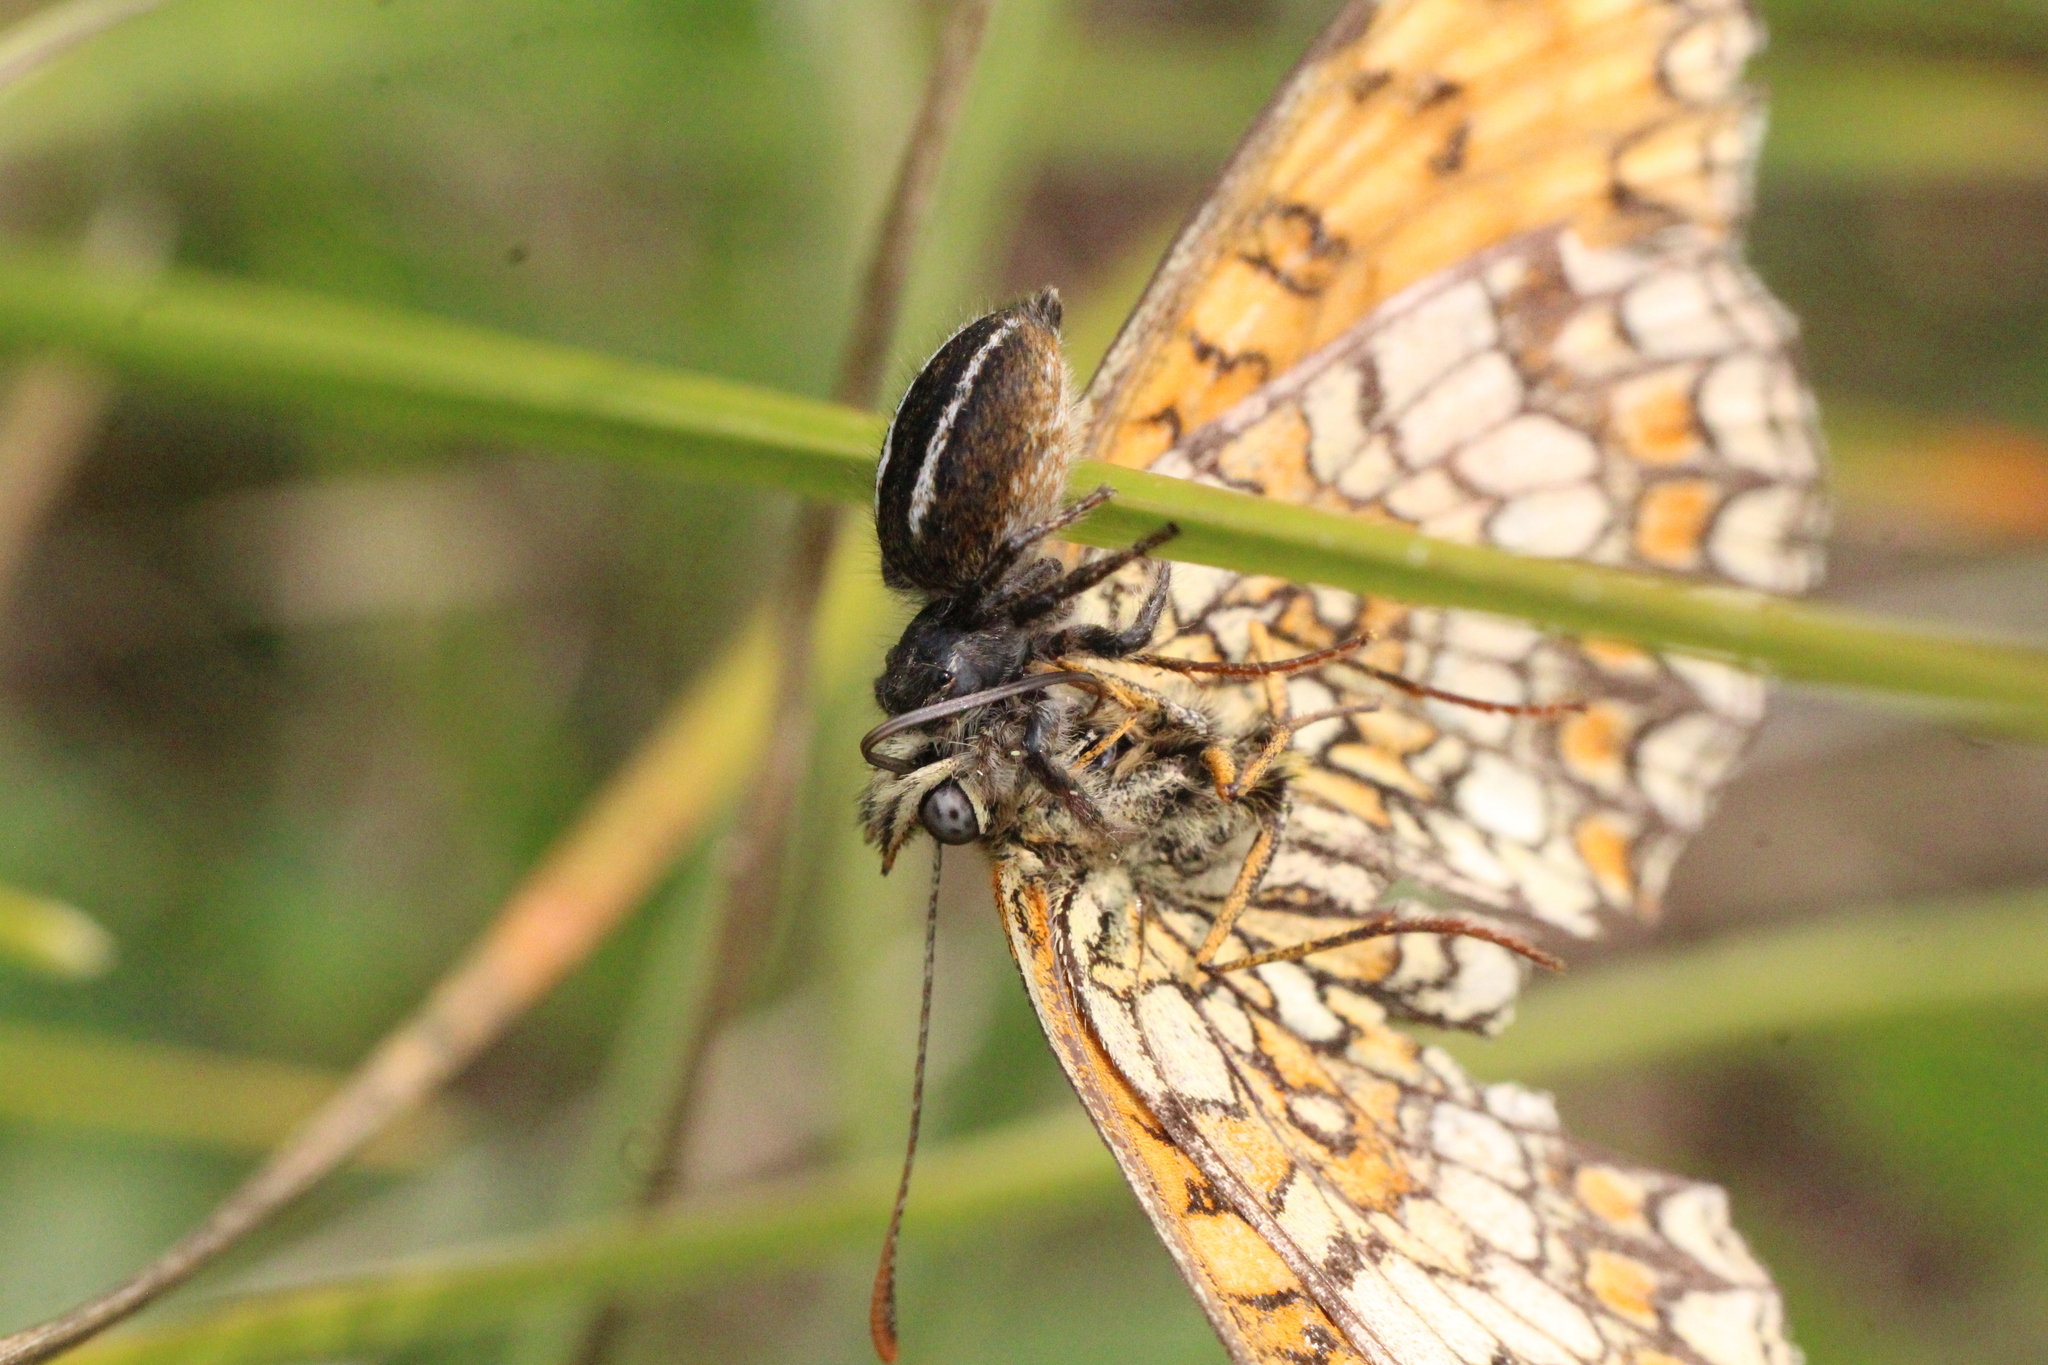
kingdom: Animalia
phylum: Arthropoda
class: Arachnida
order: Araneae
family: Salticidae
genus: Philaeus
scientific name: Philaeus chrysops
